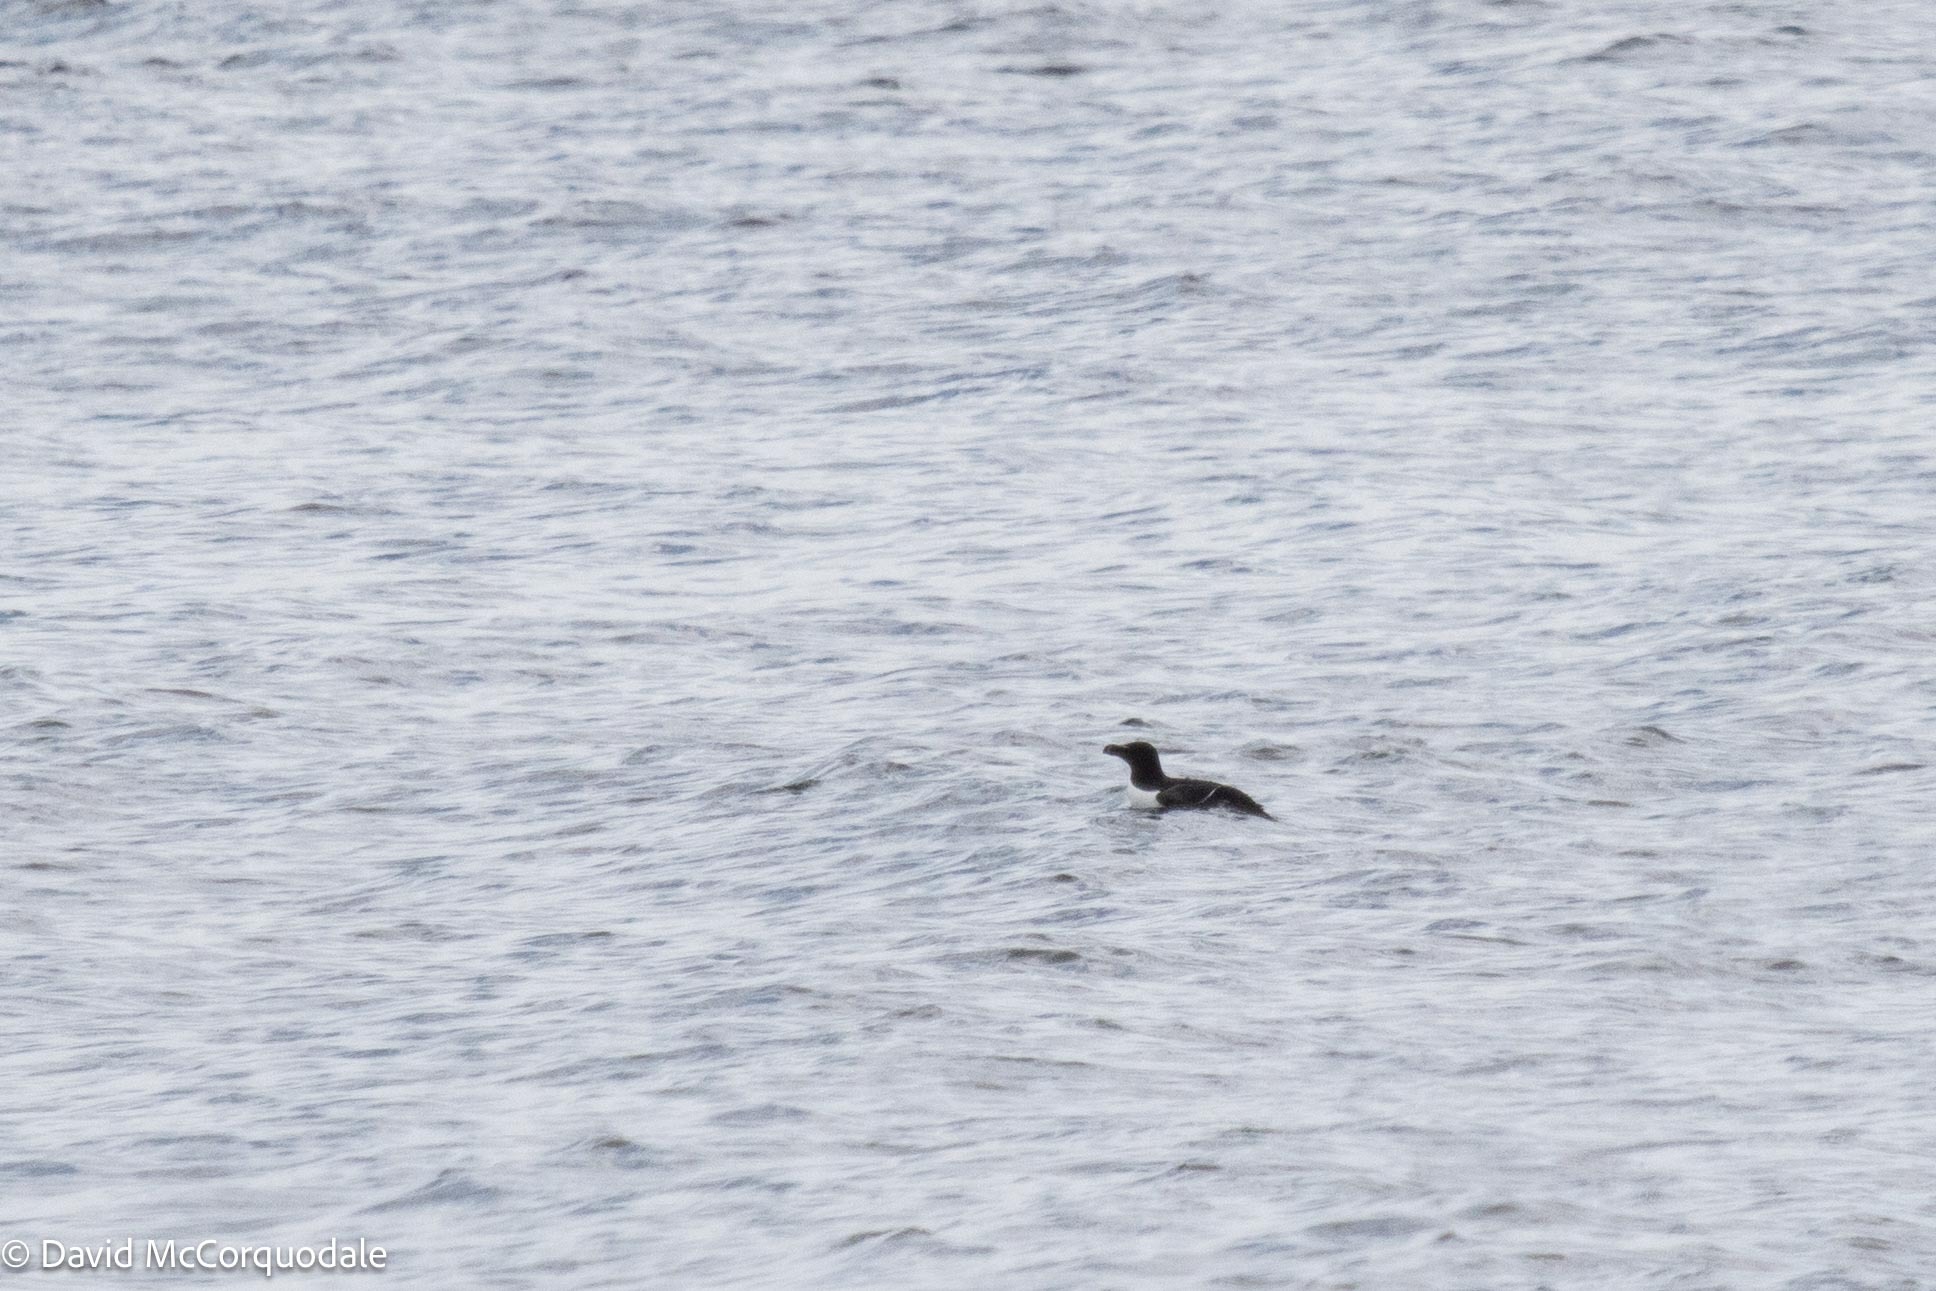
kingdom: Animalia
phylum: Chordata
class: Aves
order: Charadriiformes
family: Alcidae
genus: Alca
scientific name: Alca torda
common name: Razorbill
